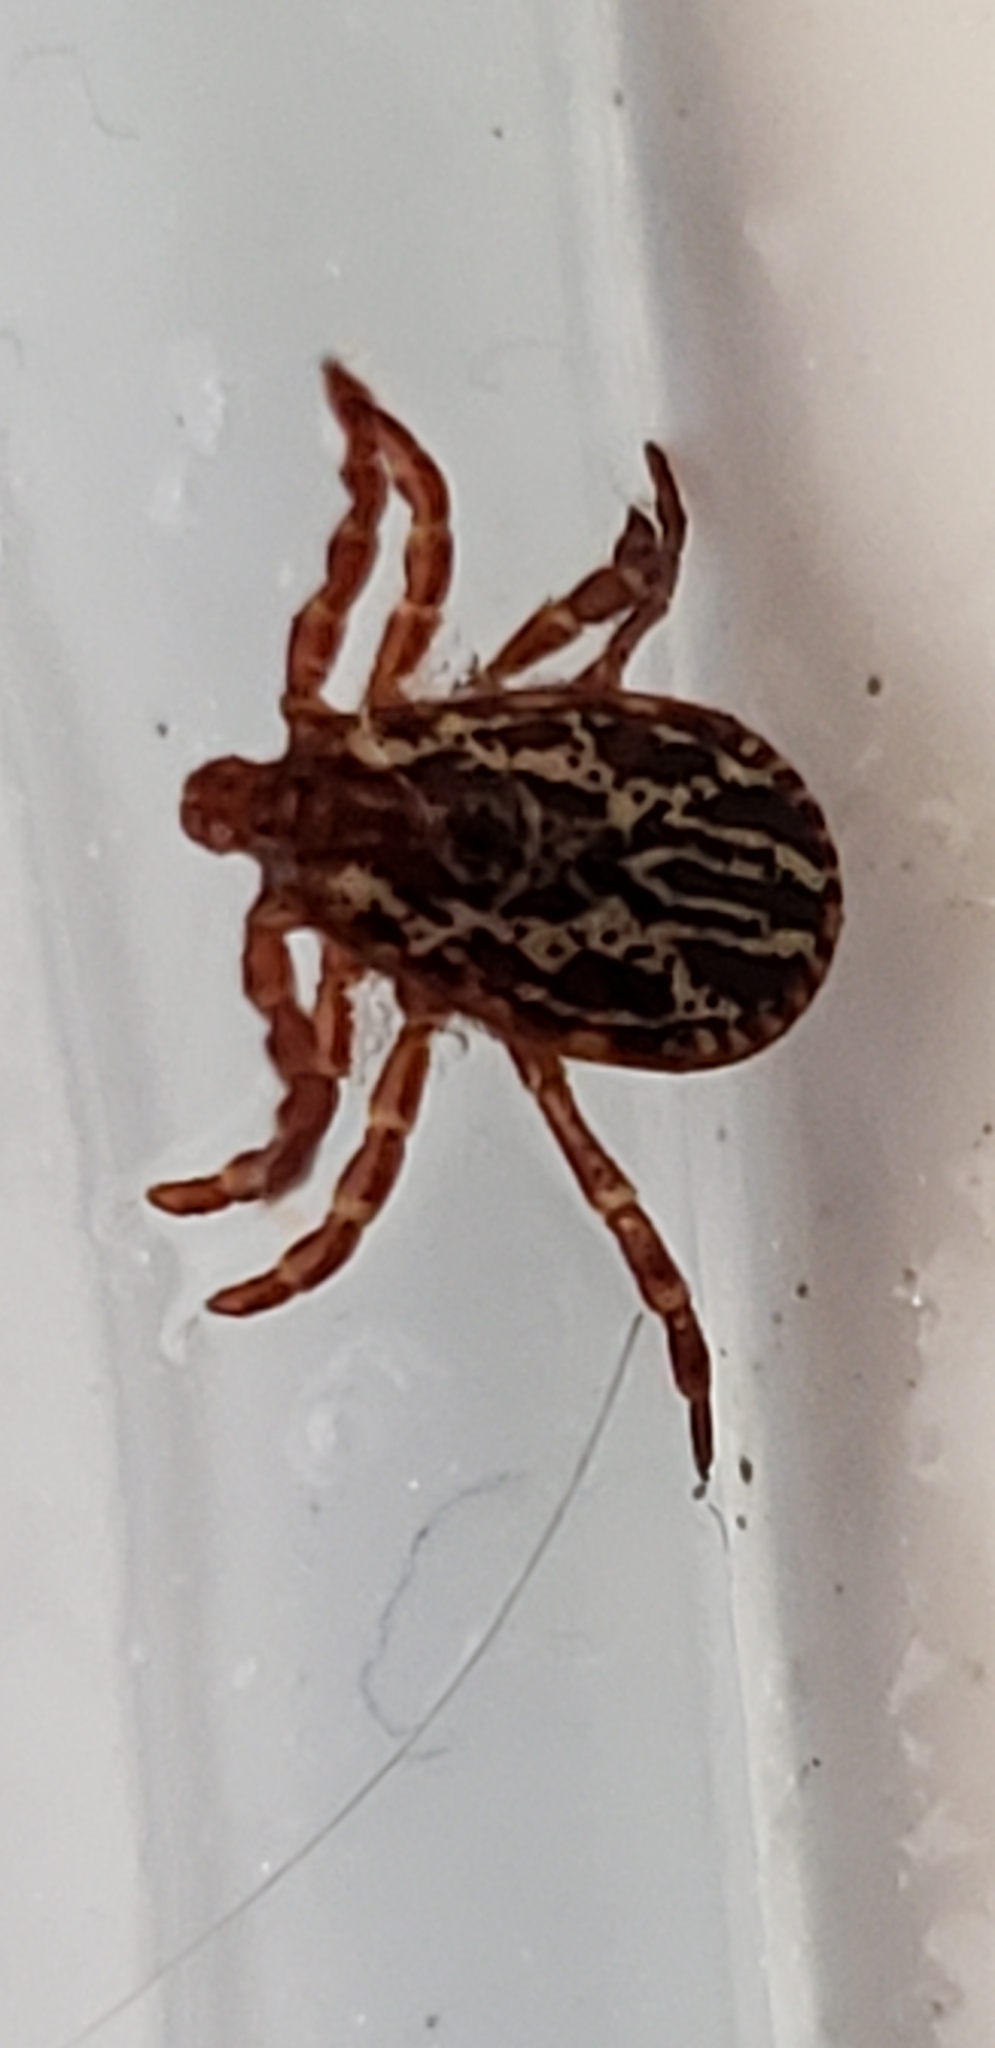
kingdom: Animalia
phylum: Arthropoda
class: Arachnida
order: Ixodida
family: Ixodidae
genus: Dermacentor
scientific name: Dermacentor variabilis
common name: American dog tick
